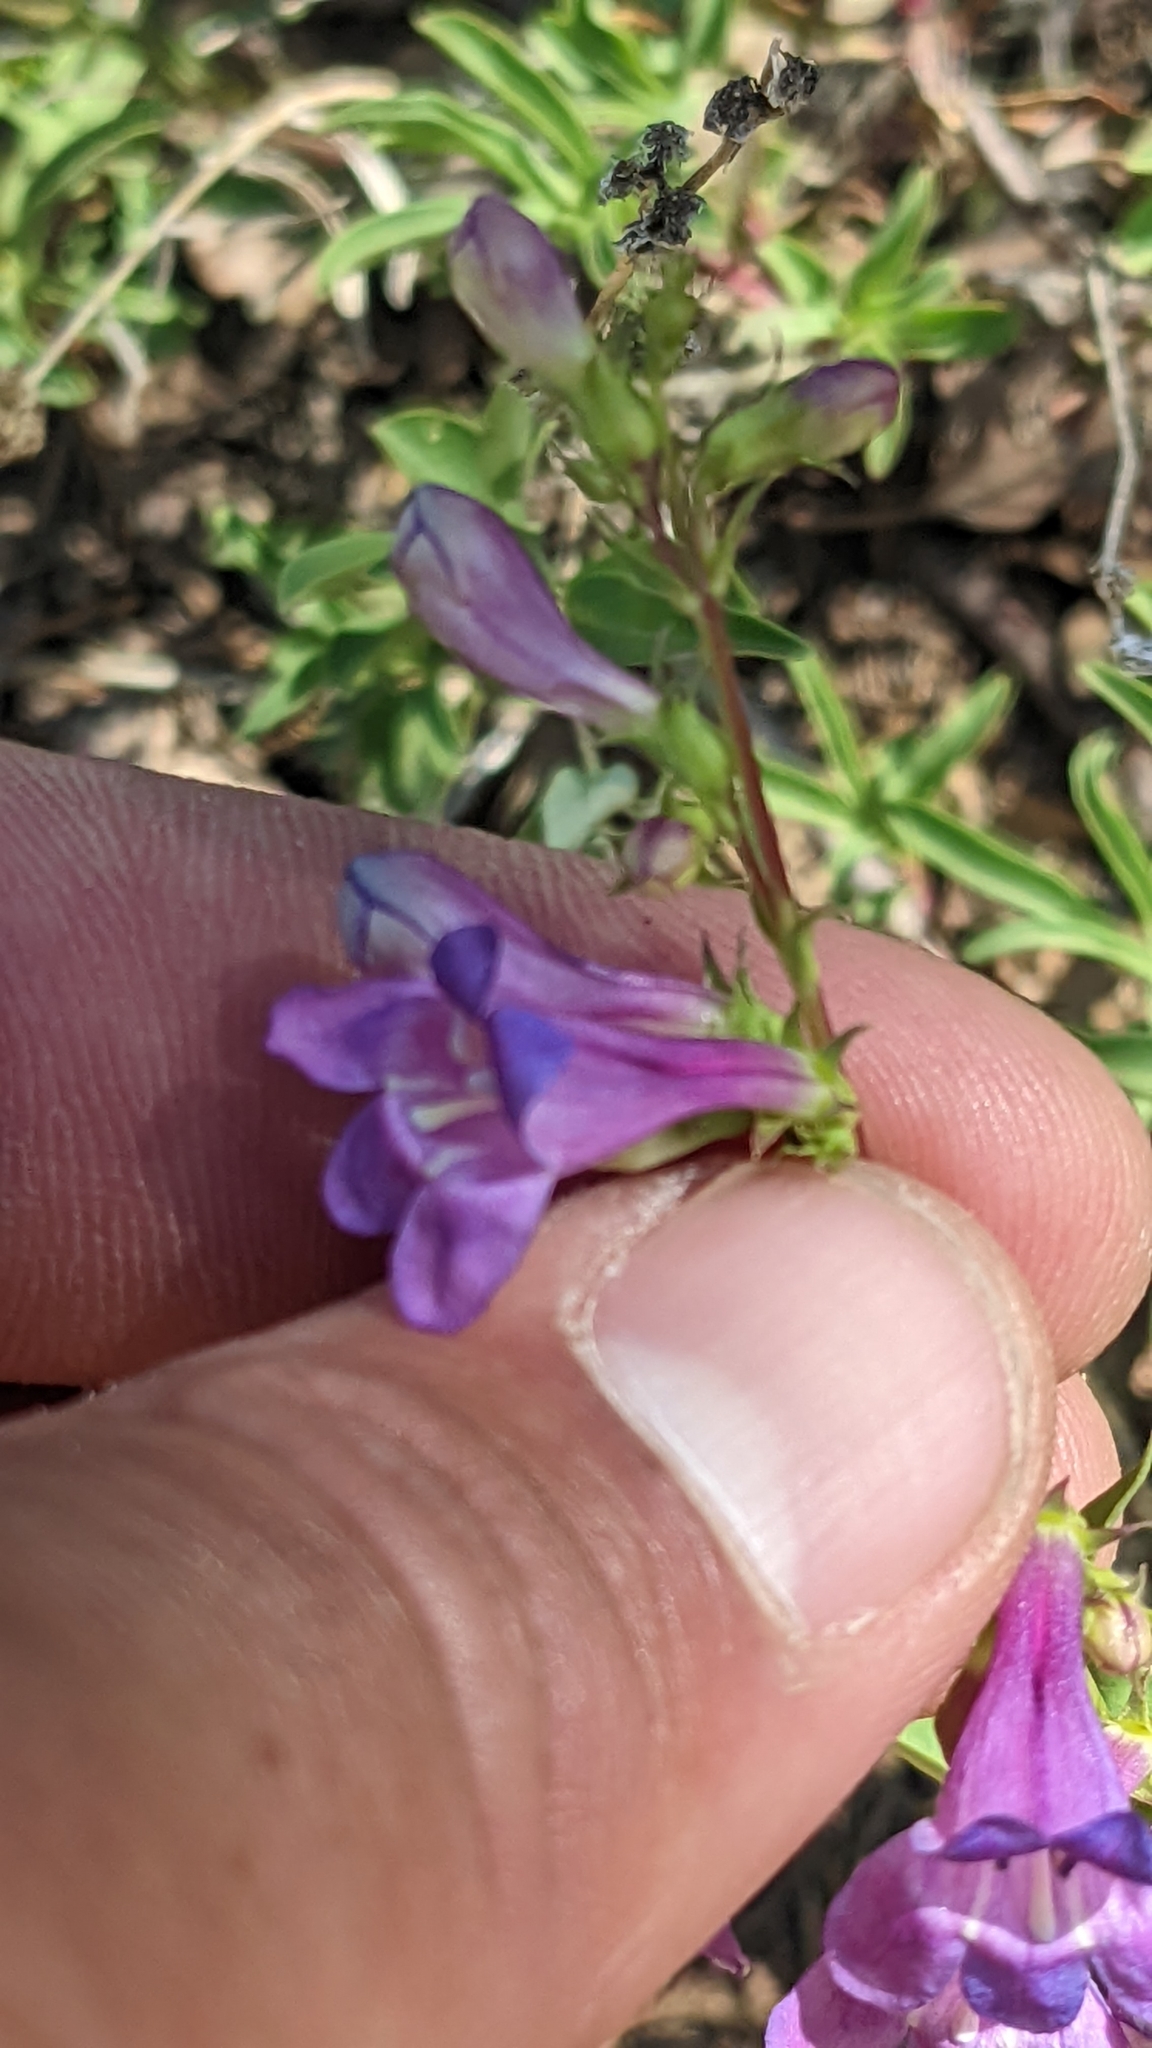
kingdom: Plantae
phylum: Tracheophyta
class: Magnoliopsida
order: Lamiales
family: Plantaginaceae
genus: Penstemon
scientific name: Penstemon leonardii
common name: Leonard's penstemon
